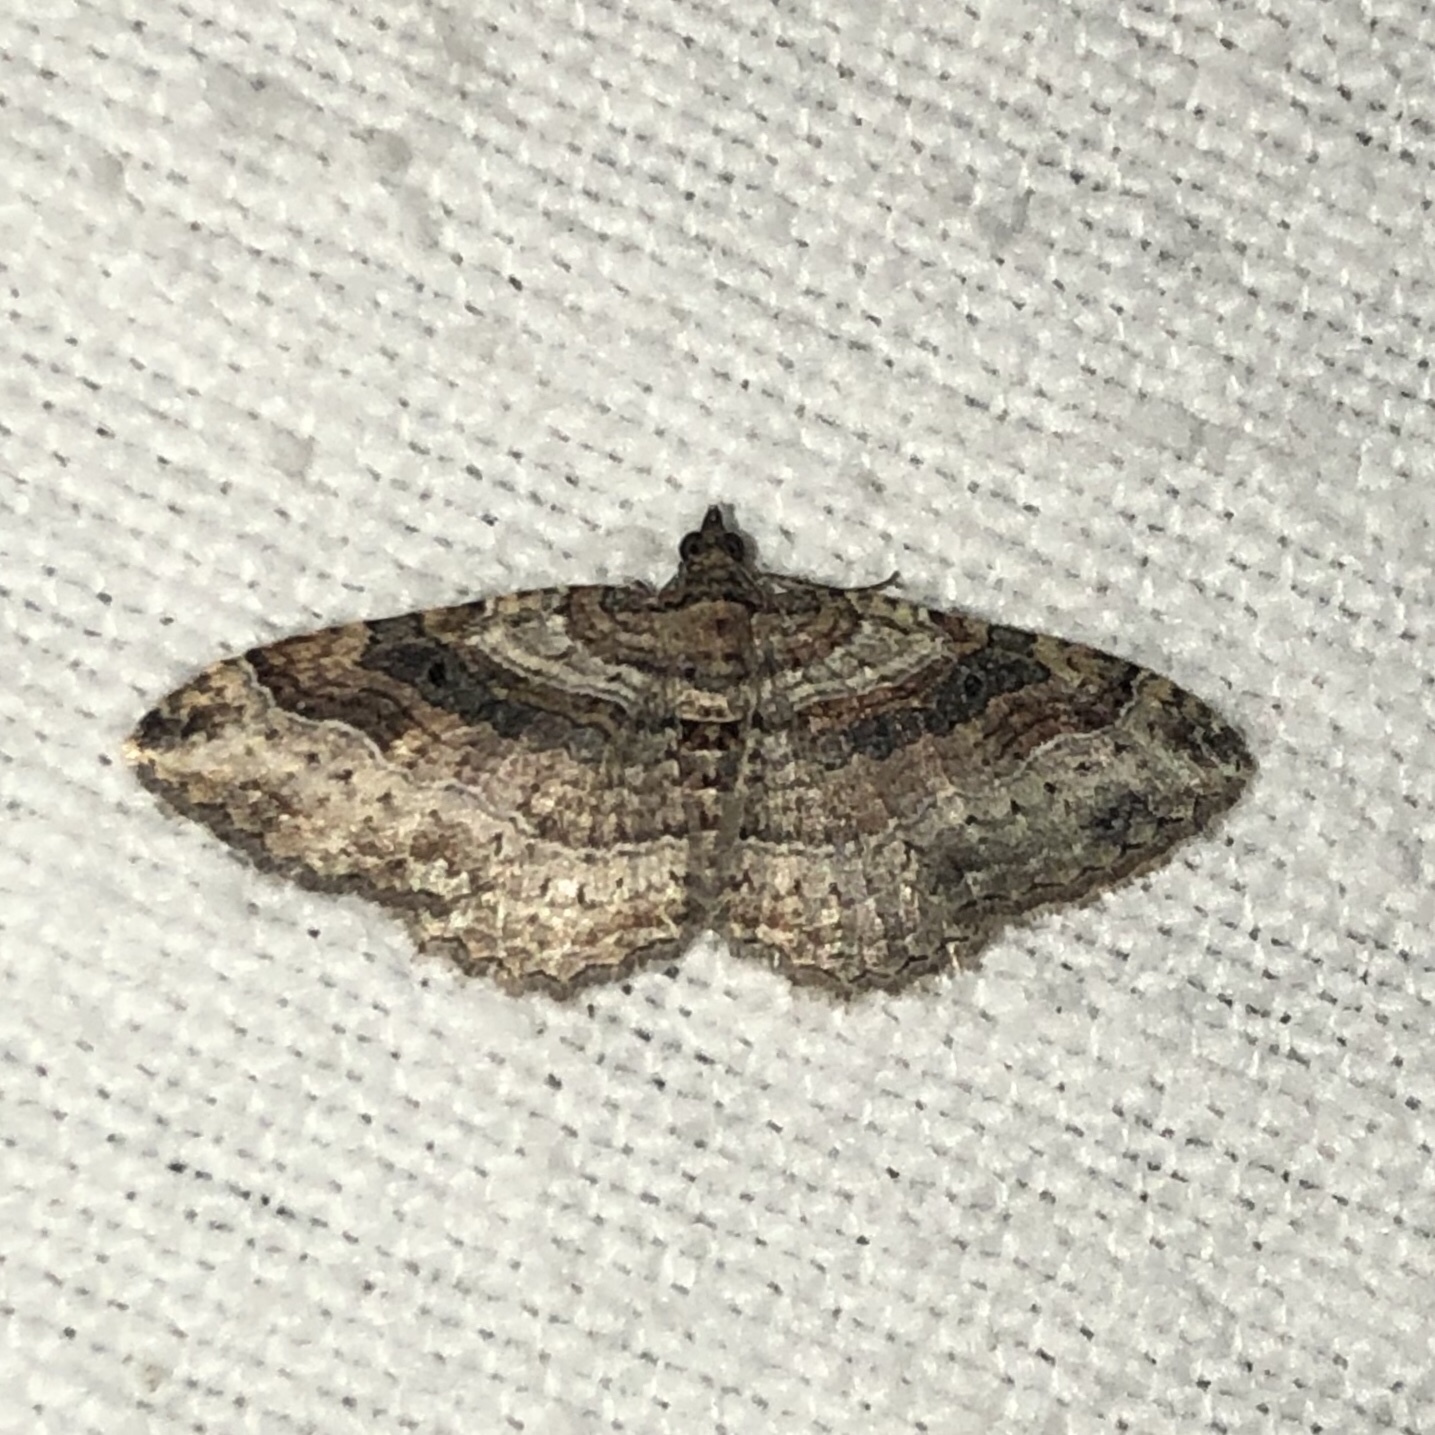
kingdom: Animalia
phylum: Arthropoda
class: Insecta
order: Lepidoptera
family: Geometridae
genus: Costaconvexa
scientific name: Costaconvexa centrostrigaria
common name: Bent-line carpet
